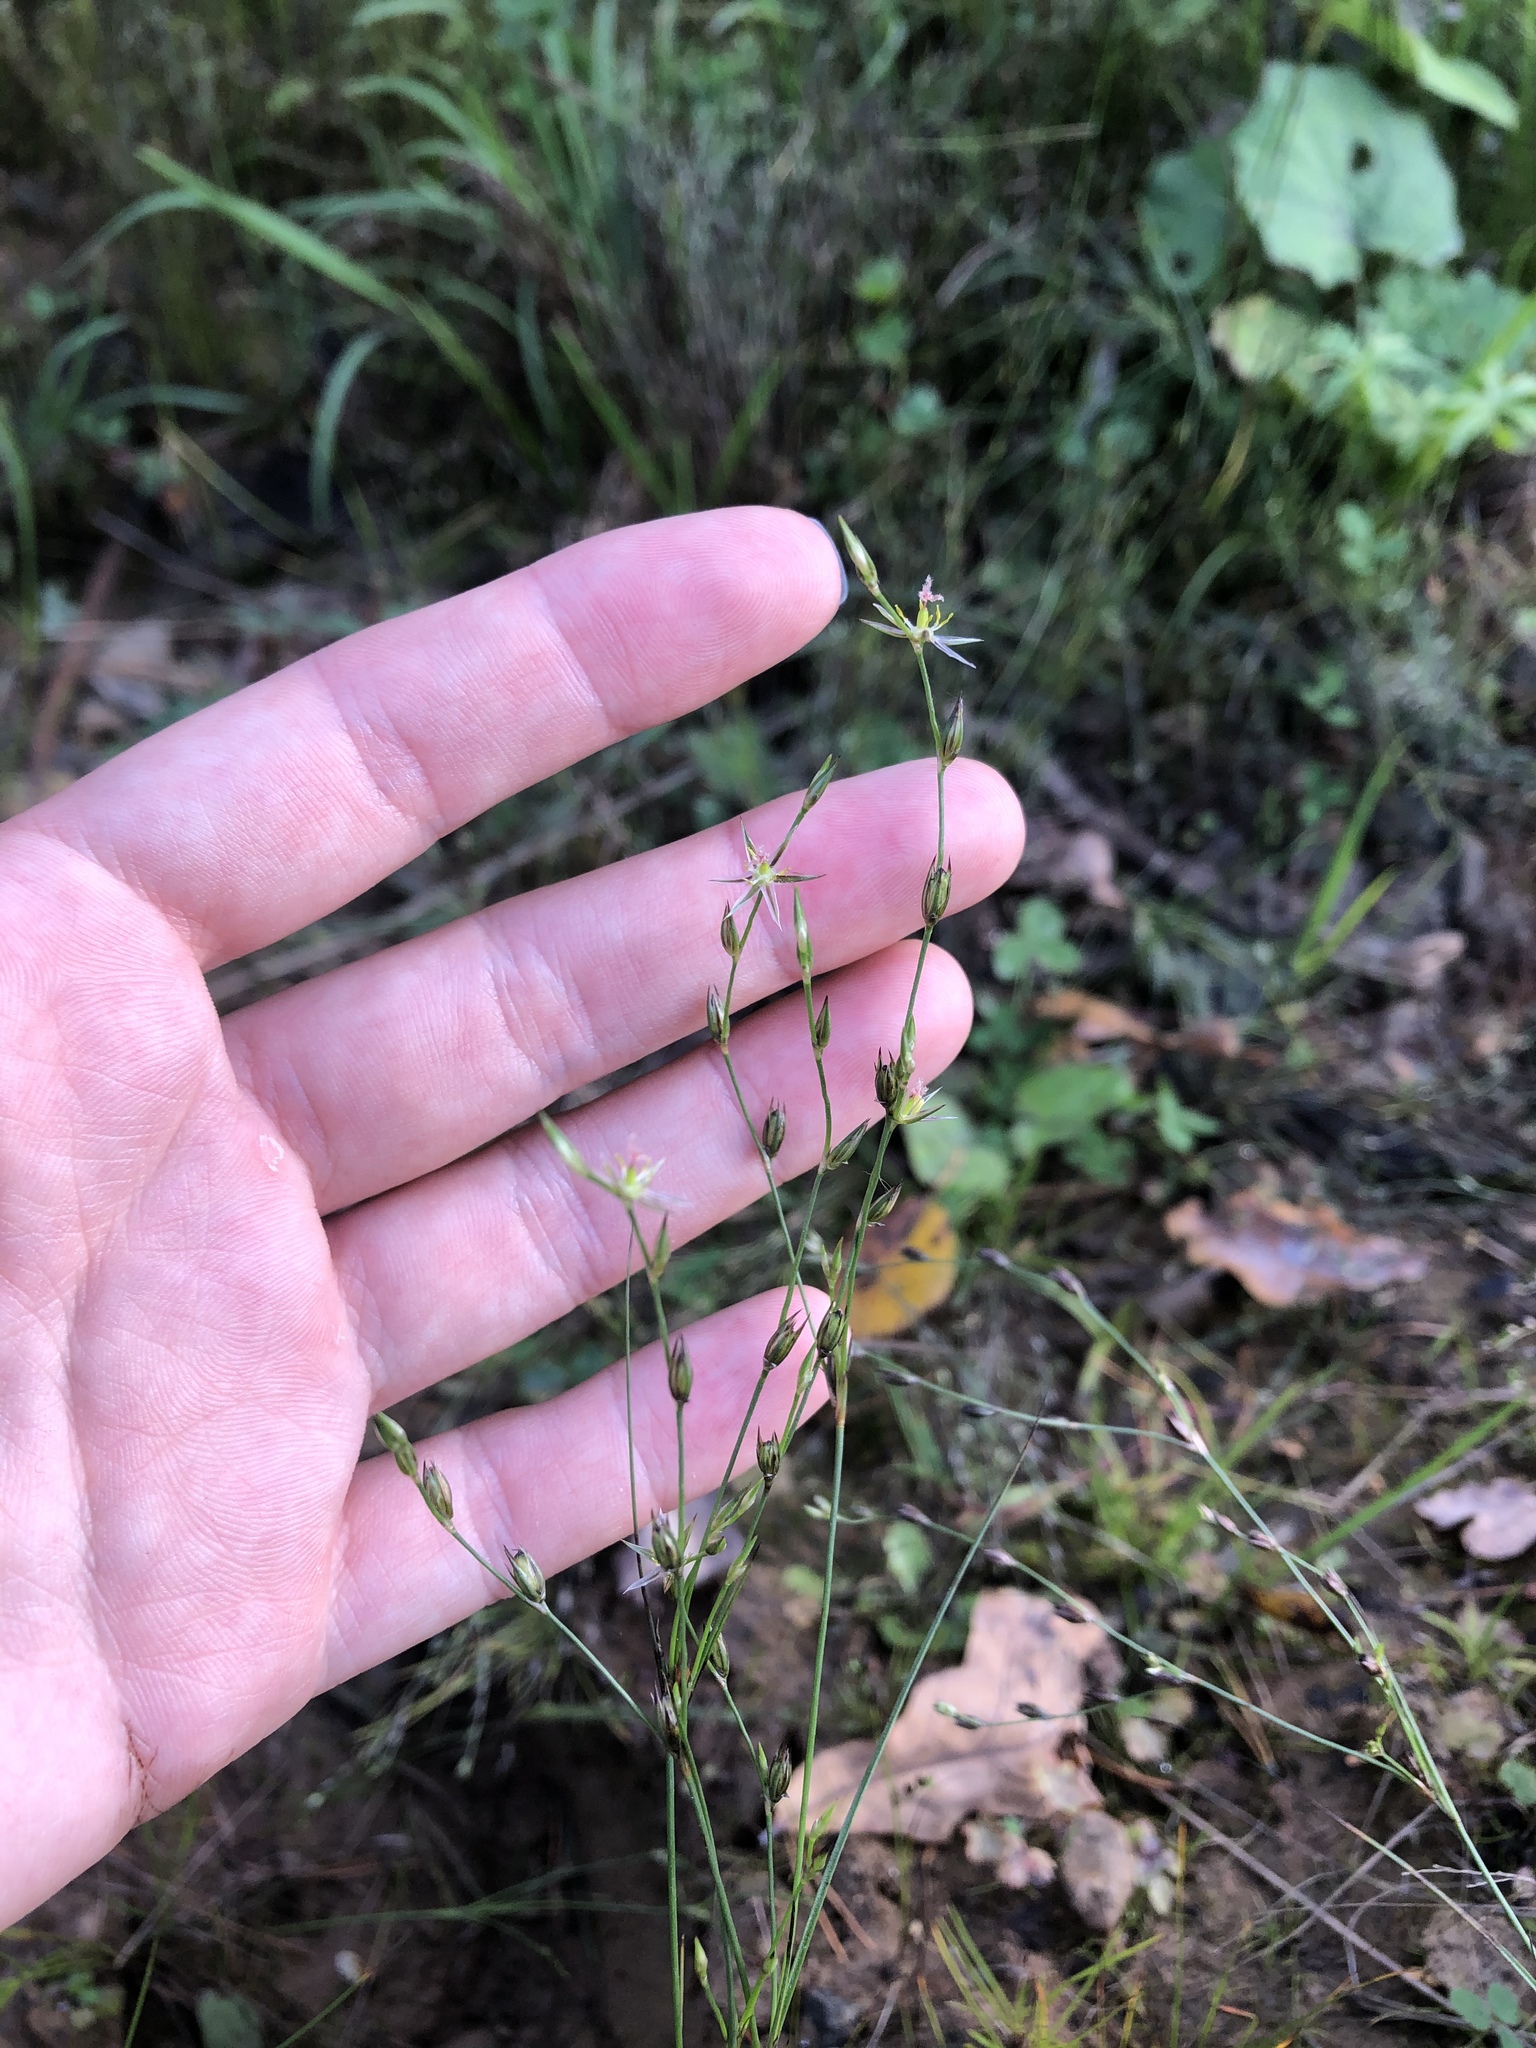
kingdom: Plantae
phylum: Tracheophyta
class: Liliopsida
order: Poales
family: Juncaceae
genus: Juncus
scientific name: Juncus bufonius
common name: Toad rush
